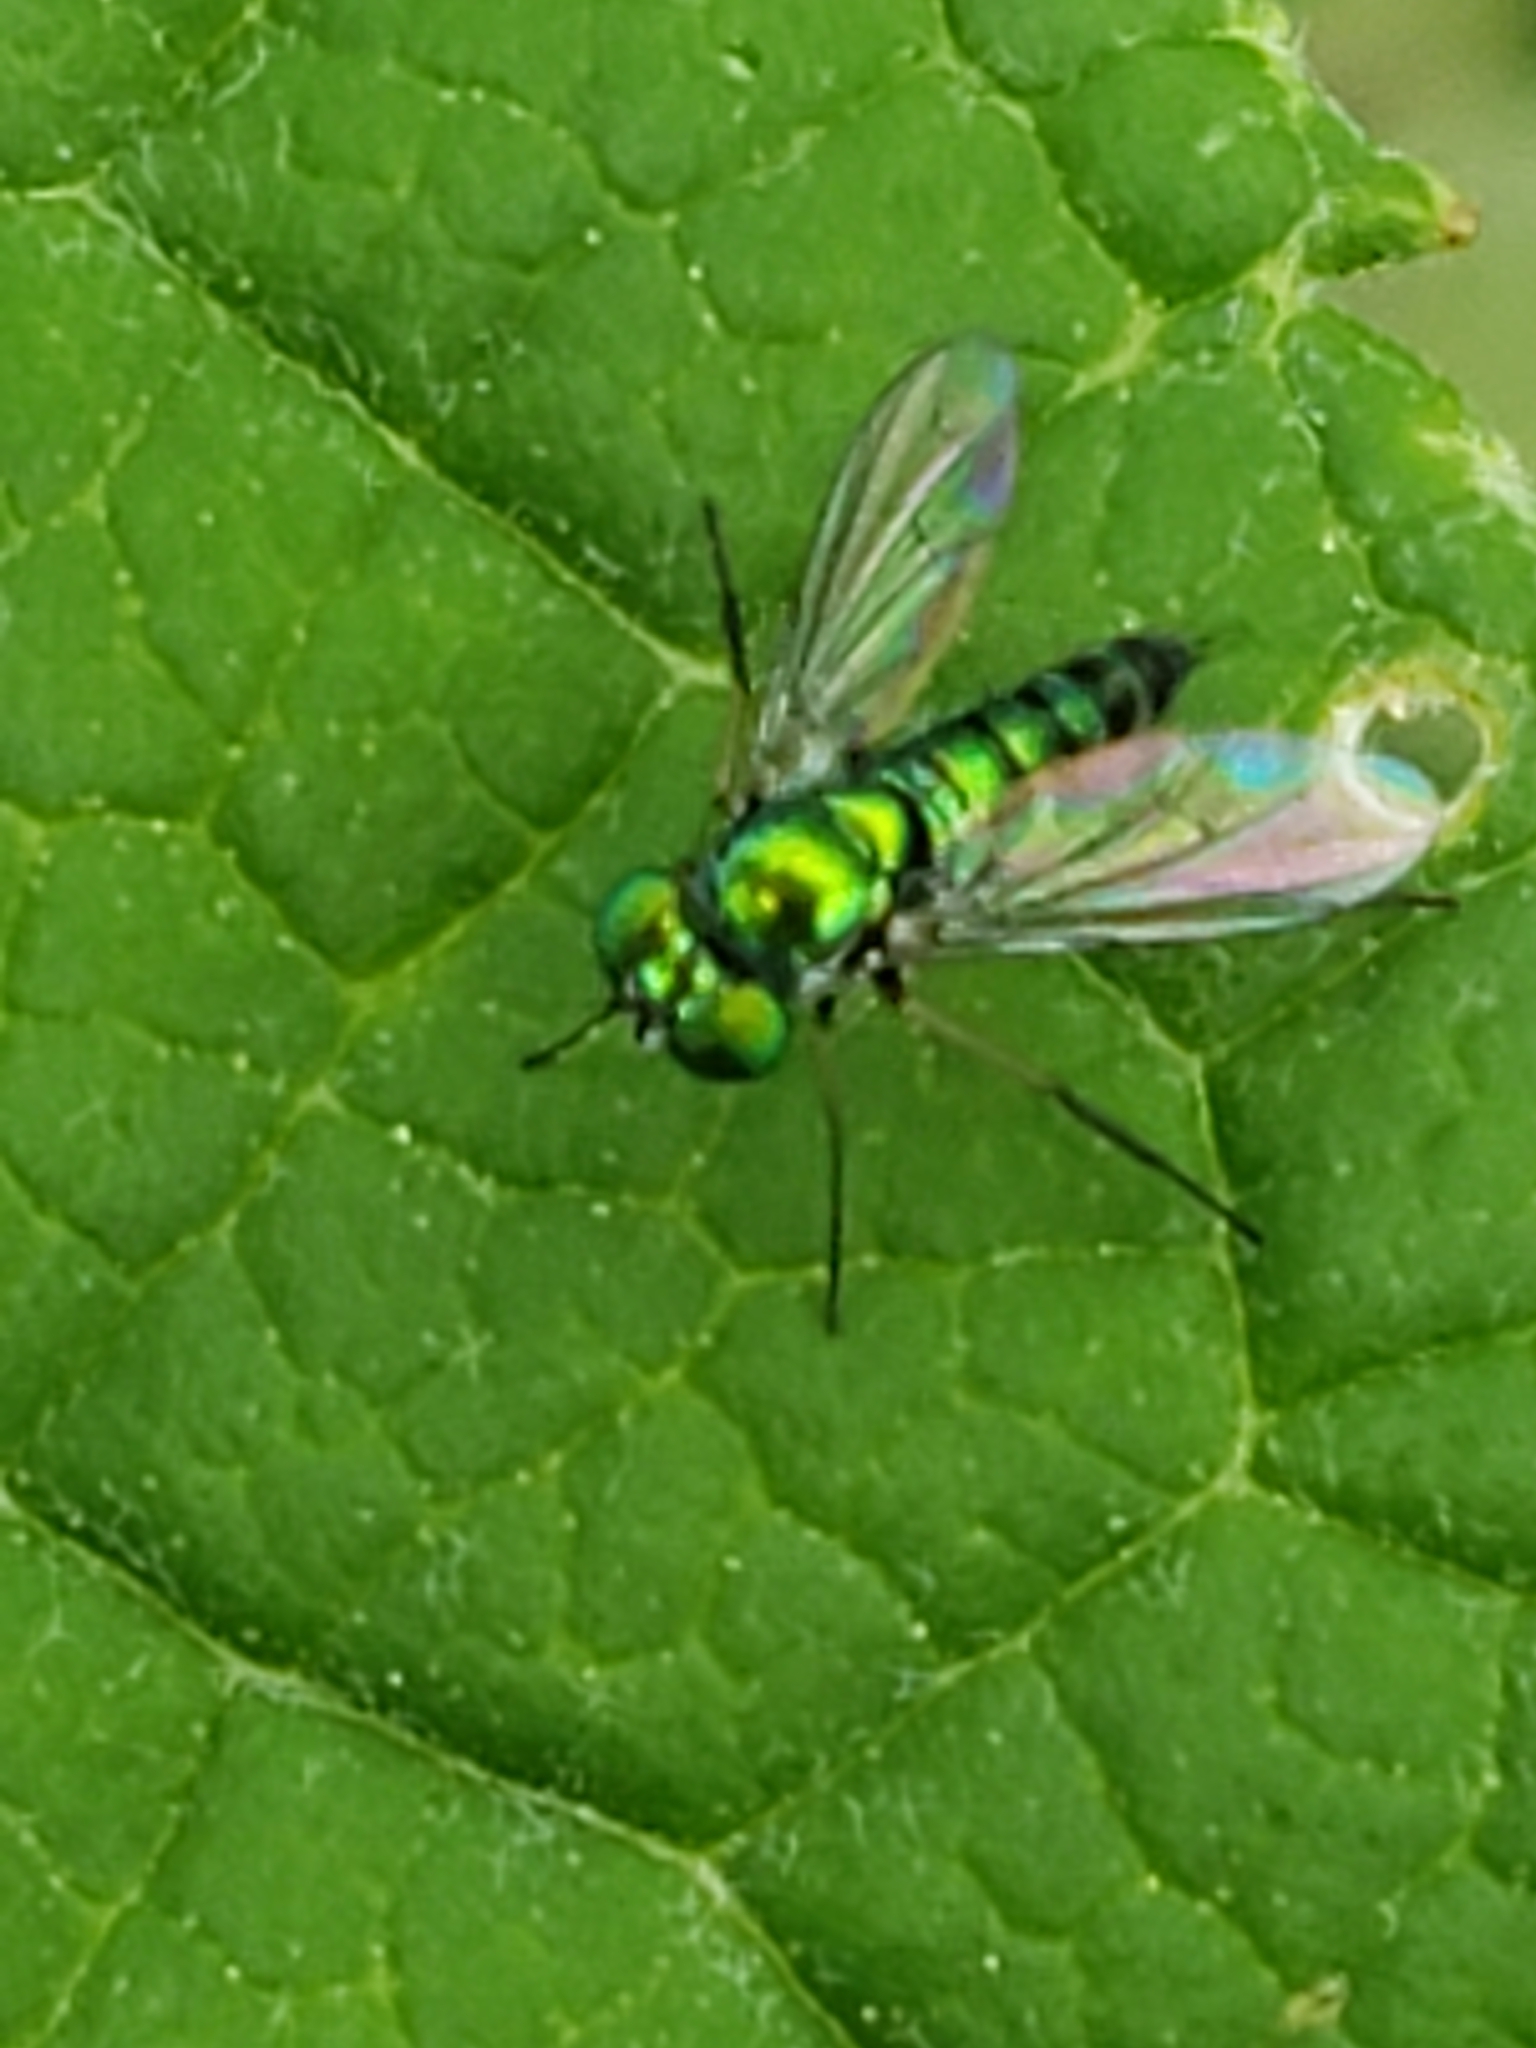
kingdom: Animalia
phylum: Arthropoda
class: Insecta
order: Diptera
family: Dolichopodidae
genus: Condylostylus
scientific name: Condylostylus caudatus
